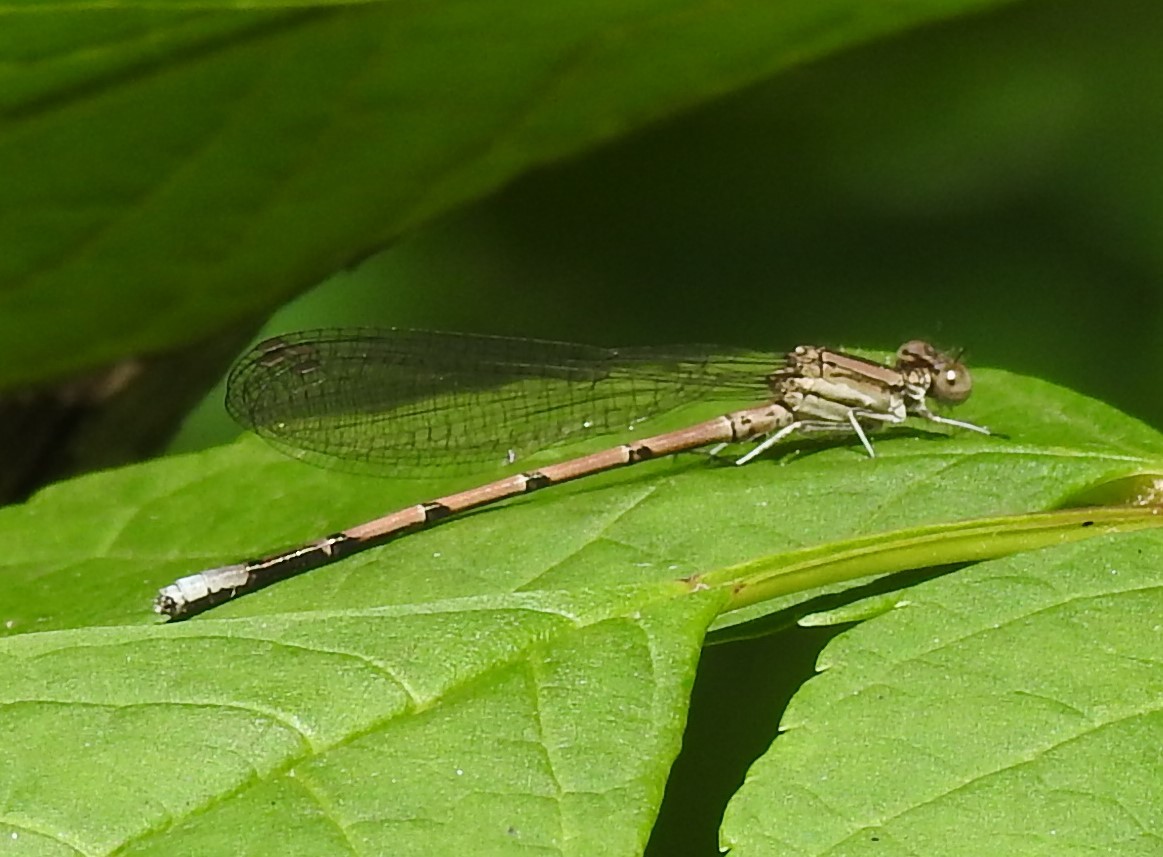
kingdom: Animalia
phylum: Arthropoda
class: Insecta
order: Odonata
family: Coenagrionidae
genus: Argia
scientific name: Argia fumipennis
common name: Variable dancer
